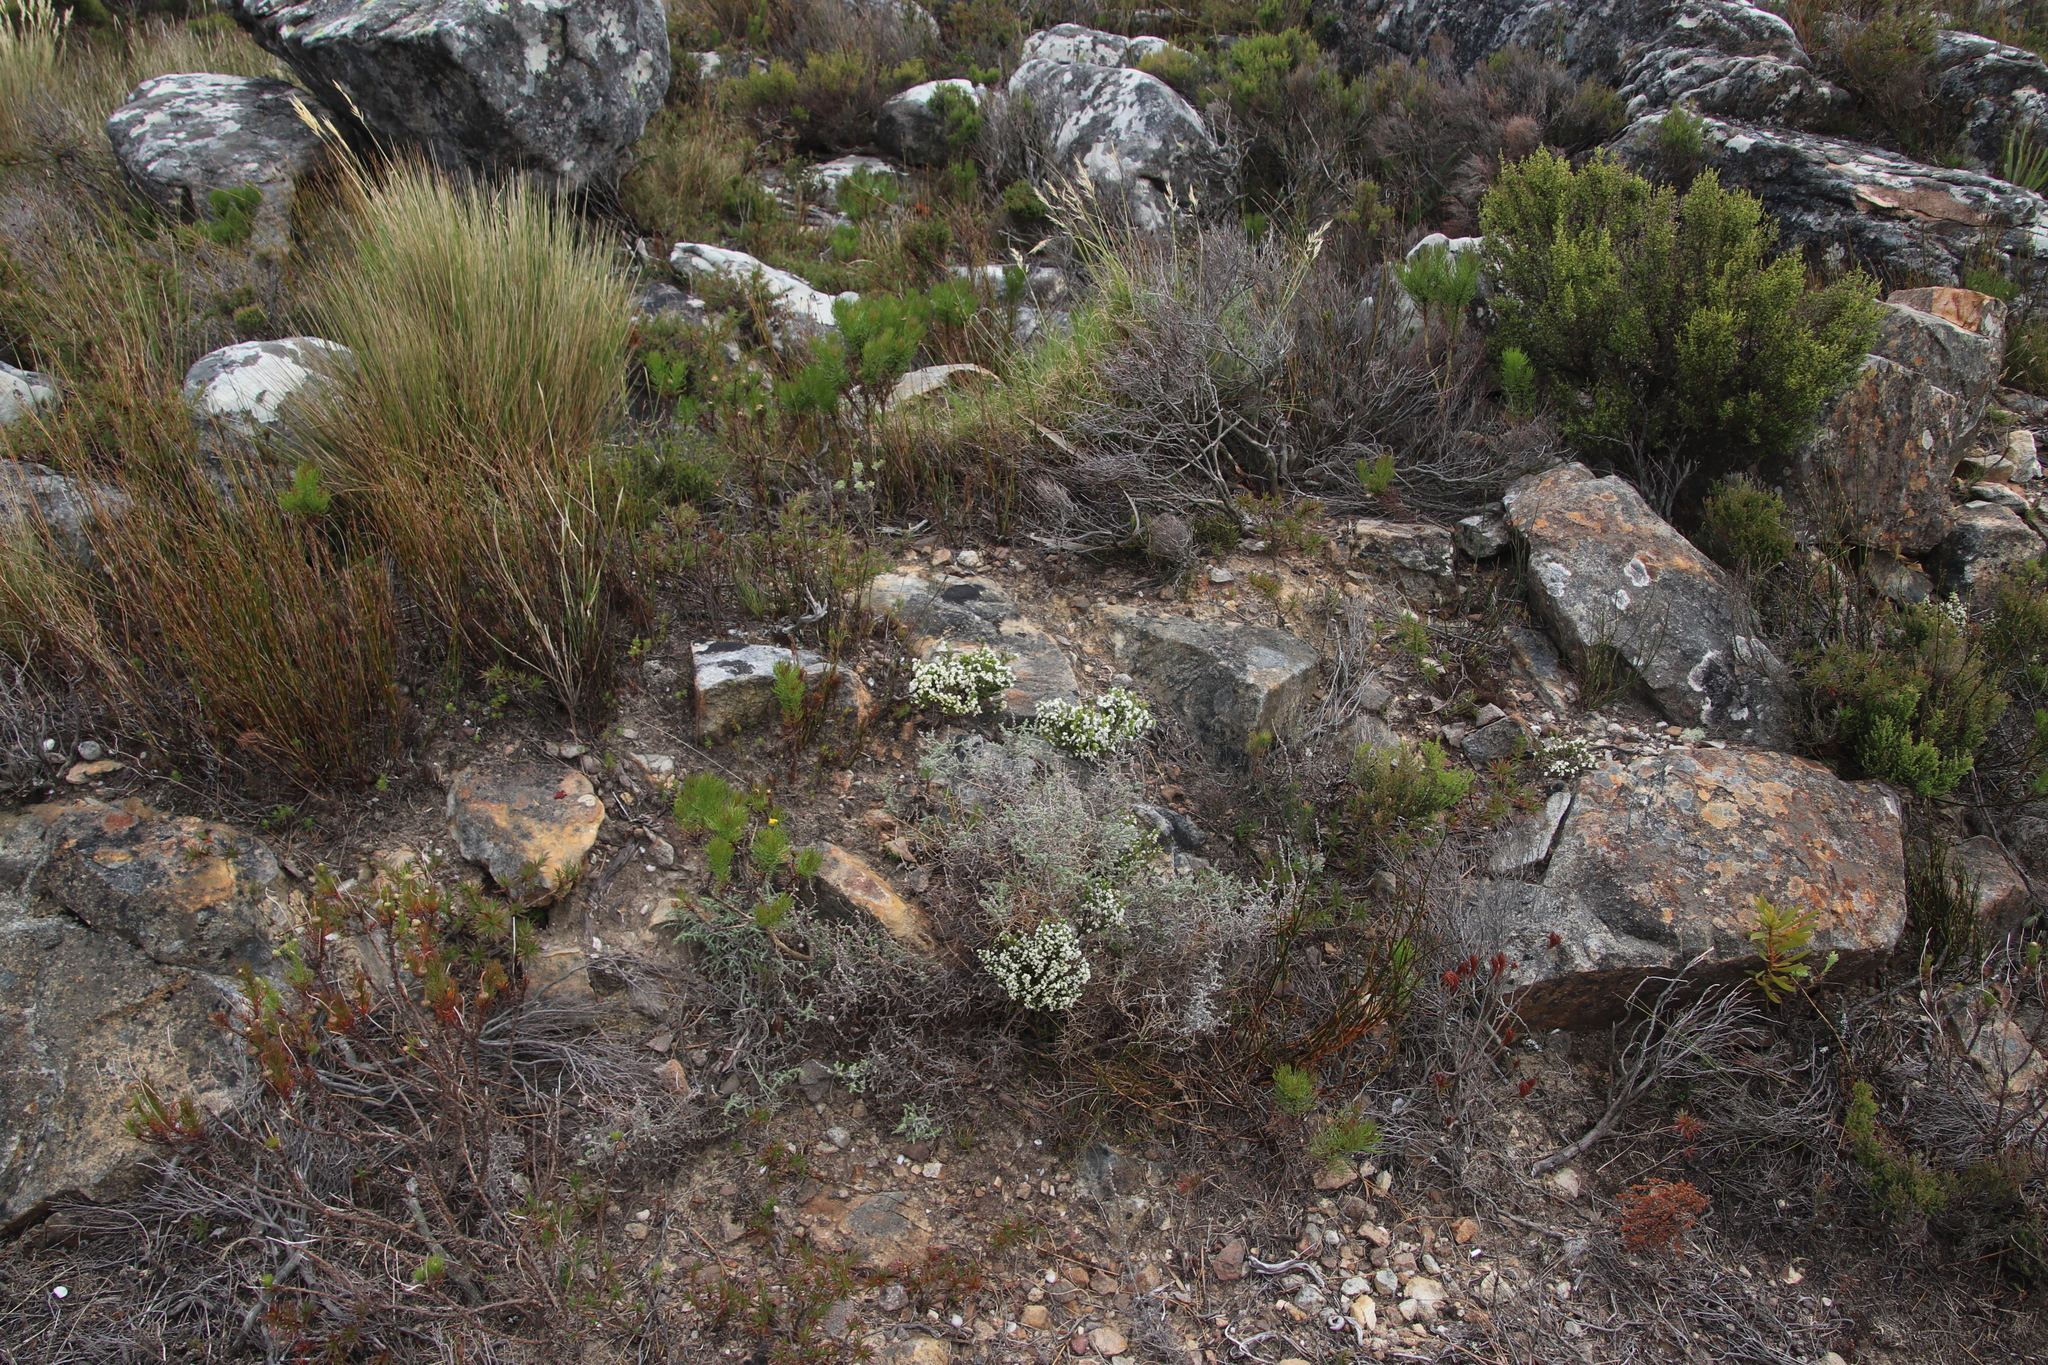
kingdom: Plantae
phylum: Tracheophyta
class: Magnoliopsida
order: Ericales
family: Ericaceae
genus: Erica
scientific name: Erica calycina
